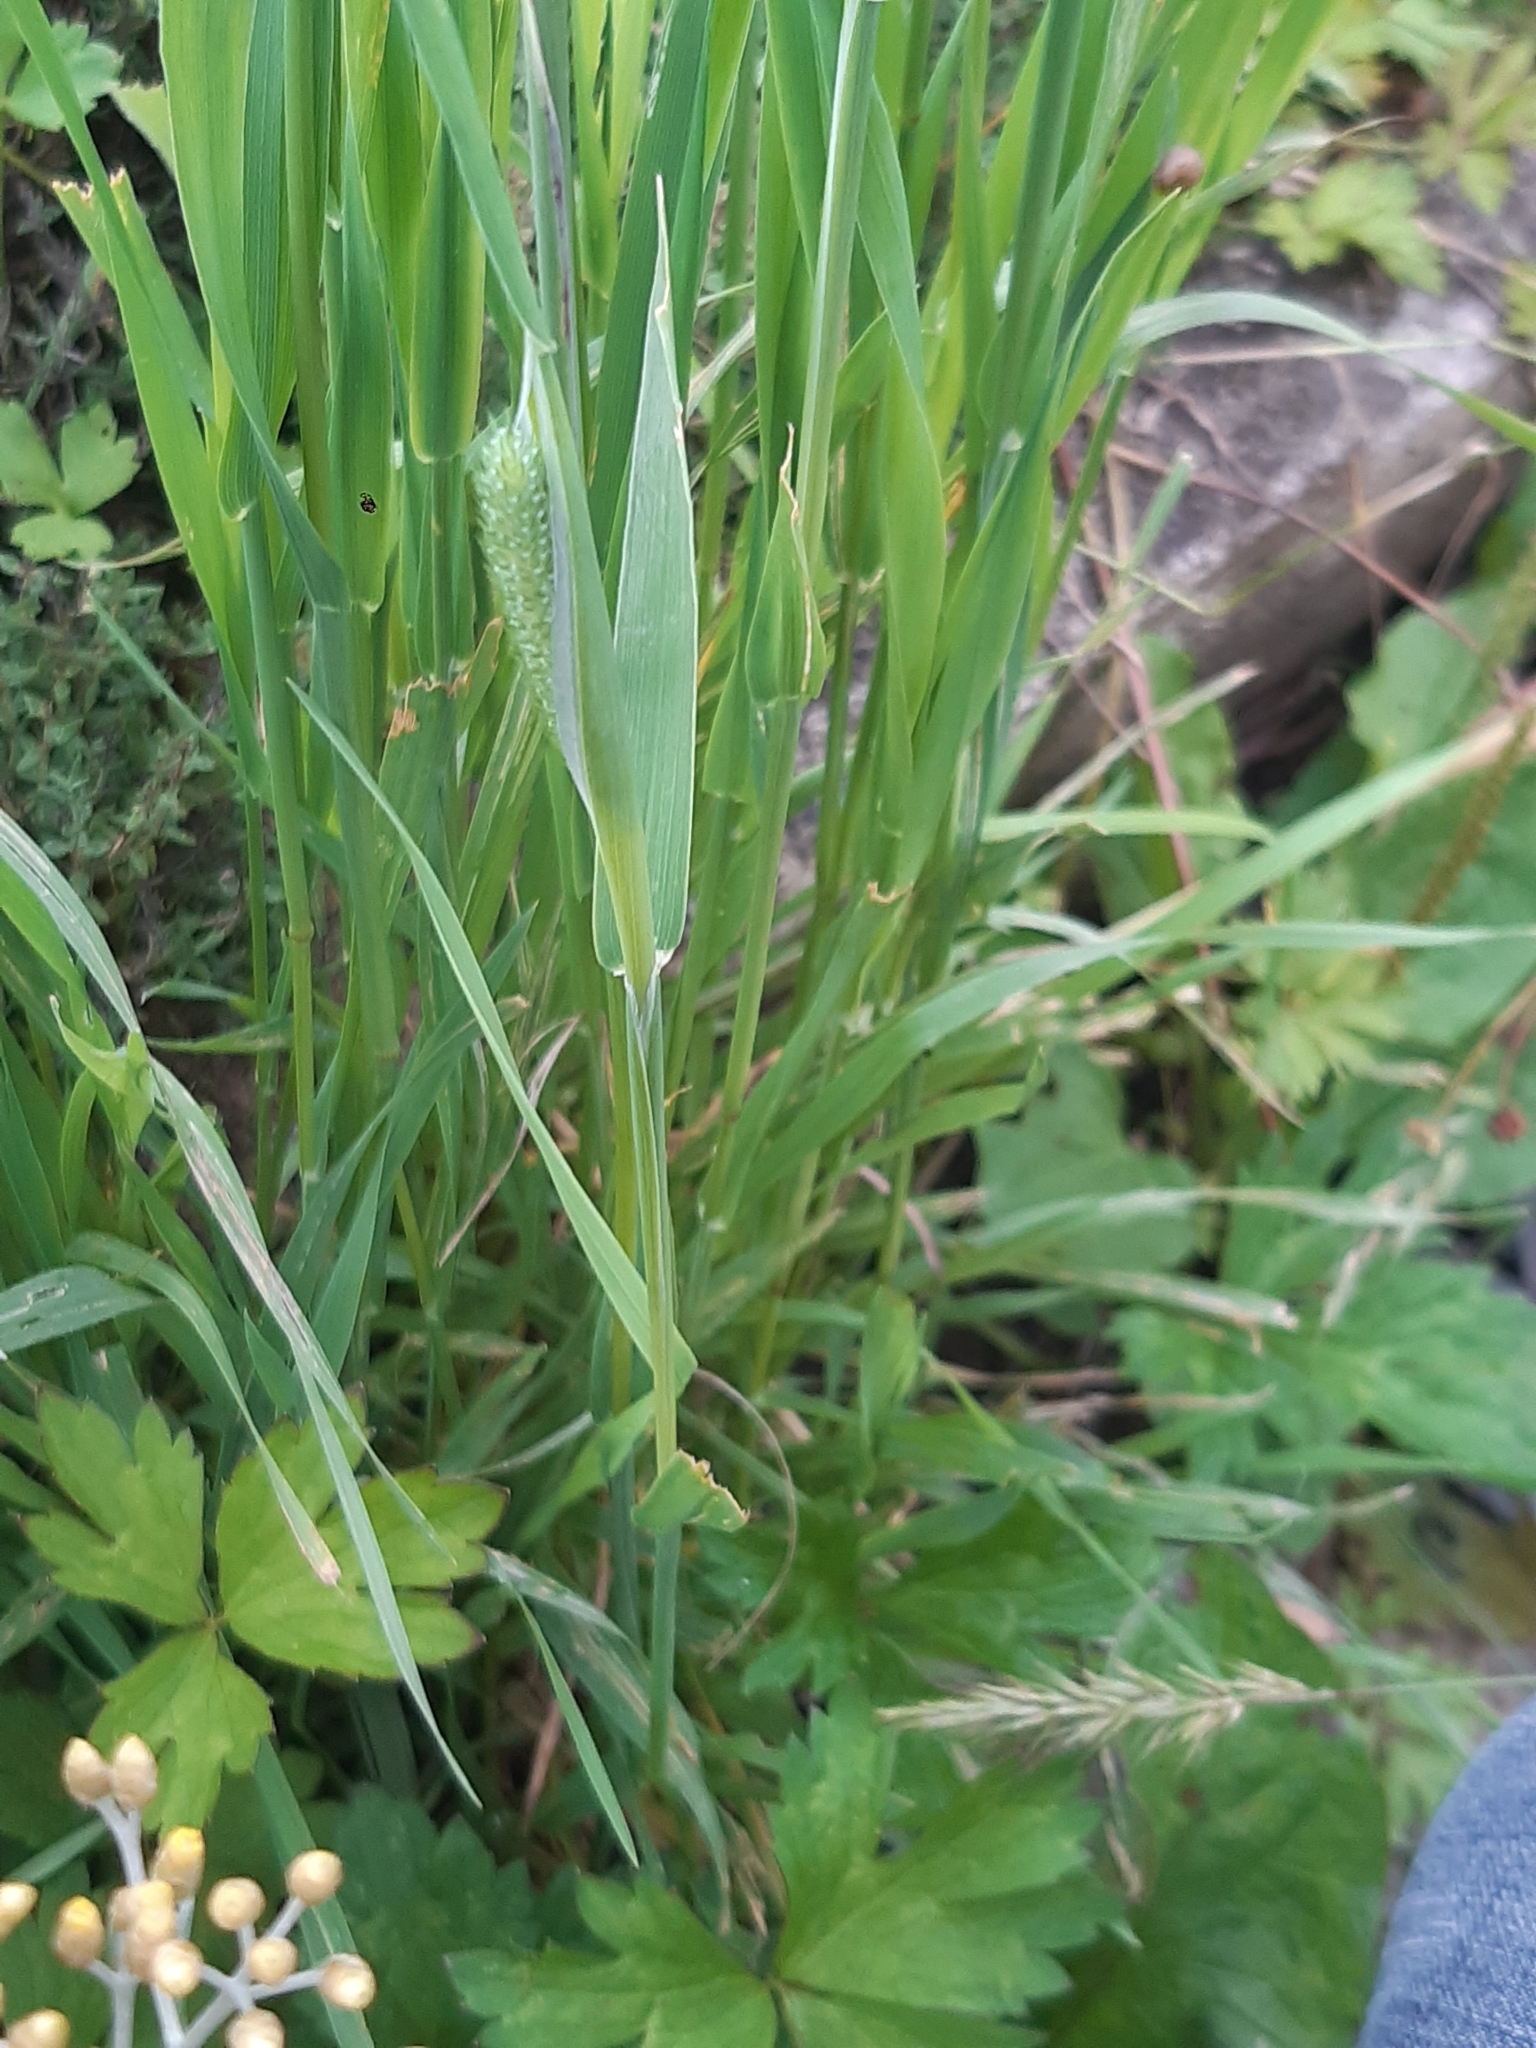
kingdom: Plantae
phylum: Tracheophyta
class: Liliopsida
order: Poales
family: Poaceae
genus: Phleum
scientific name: Phleum pratense
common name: Timothy grass
